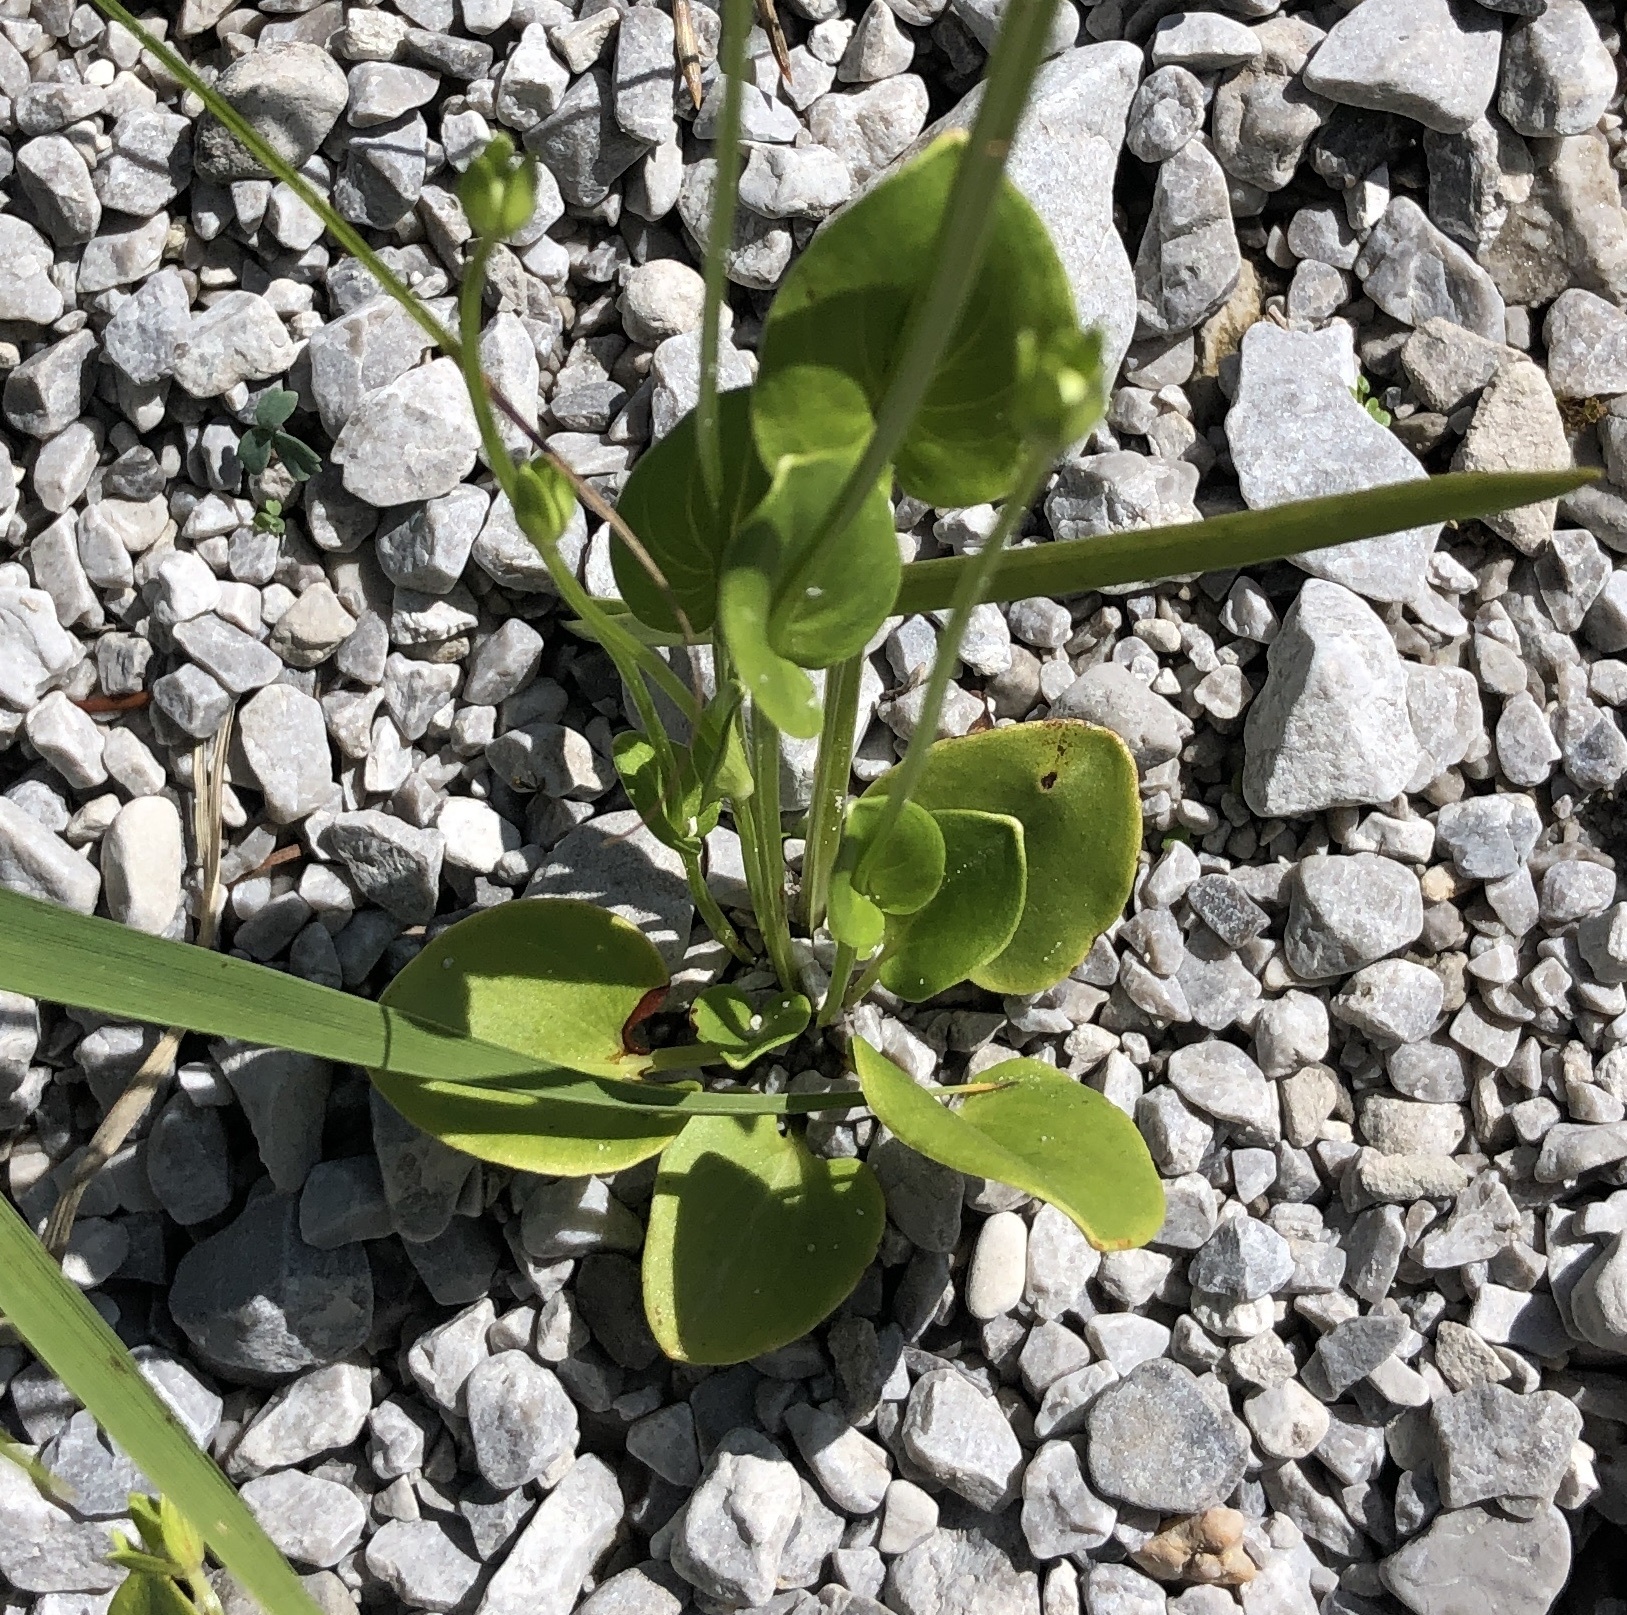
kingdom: Plantae
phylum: Tracheophyta
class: Magnoliopsida
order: Celastrales
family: Parnassiaceae
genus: Parnassia
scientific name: Parnassia palustris
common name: Grass-of-parnassus
